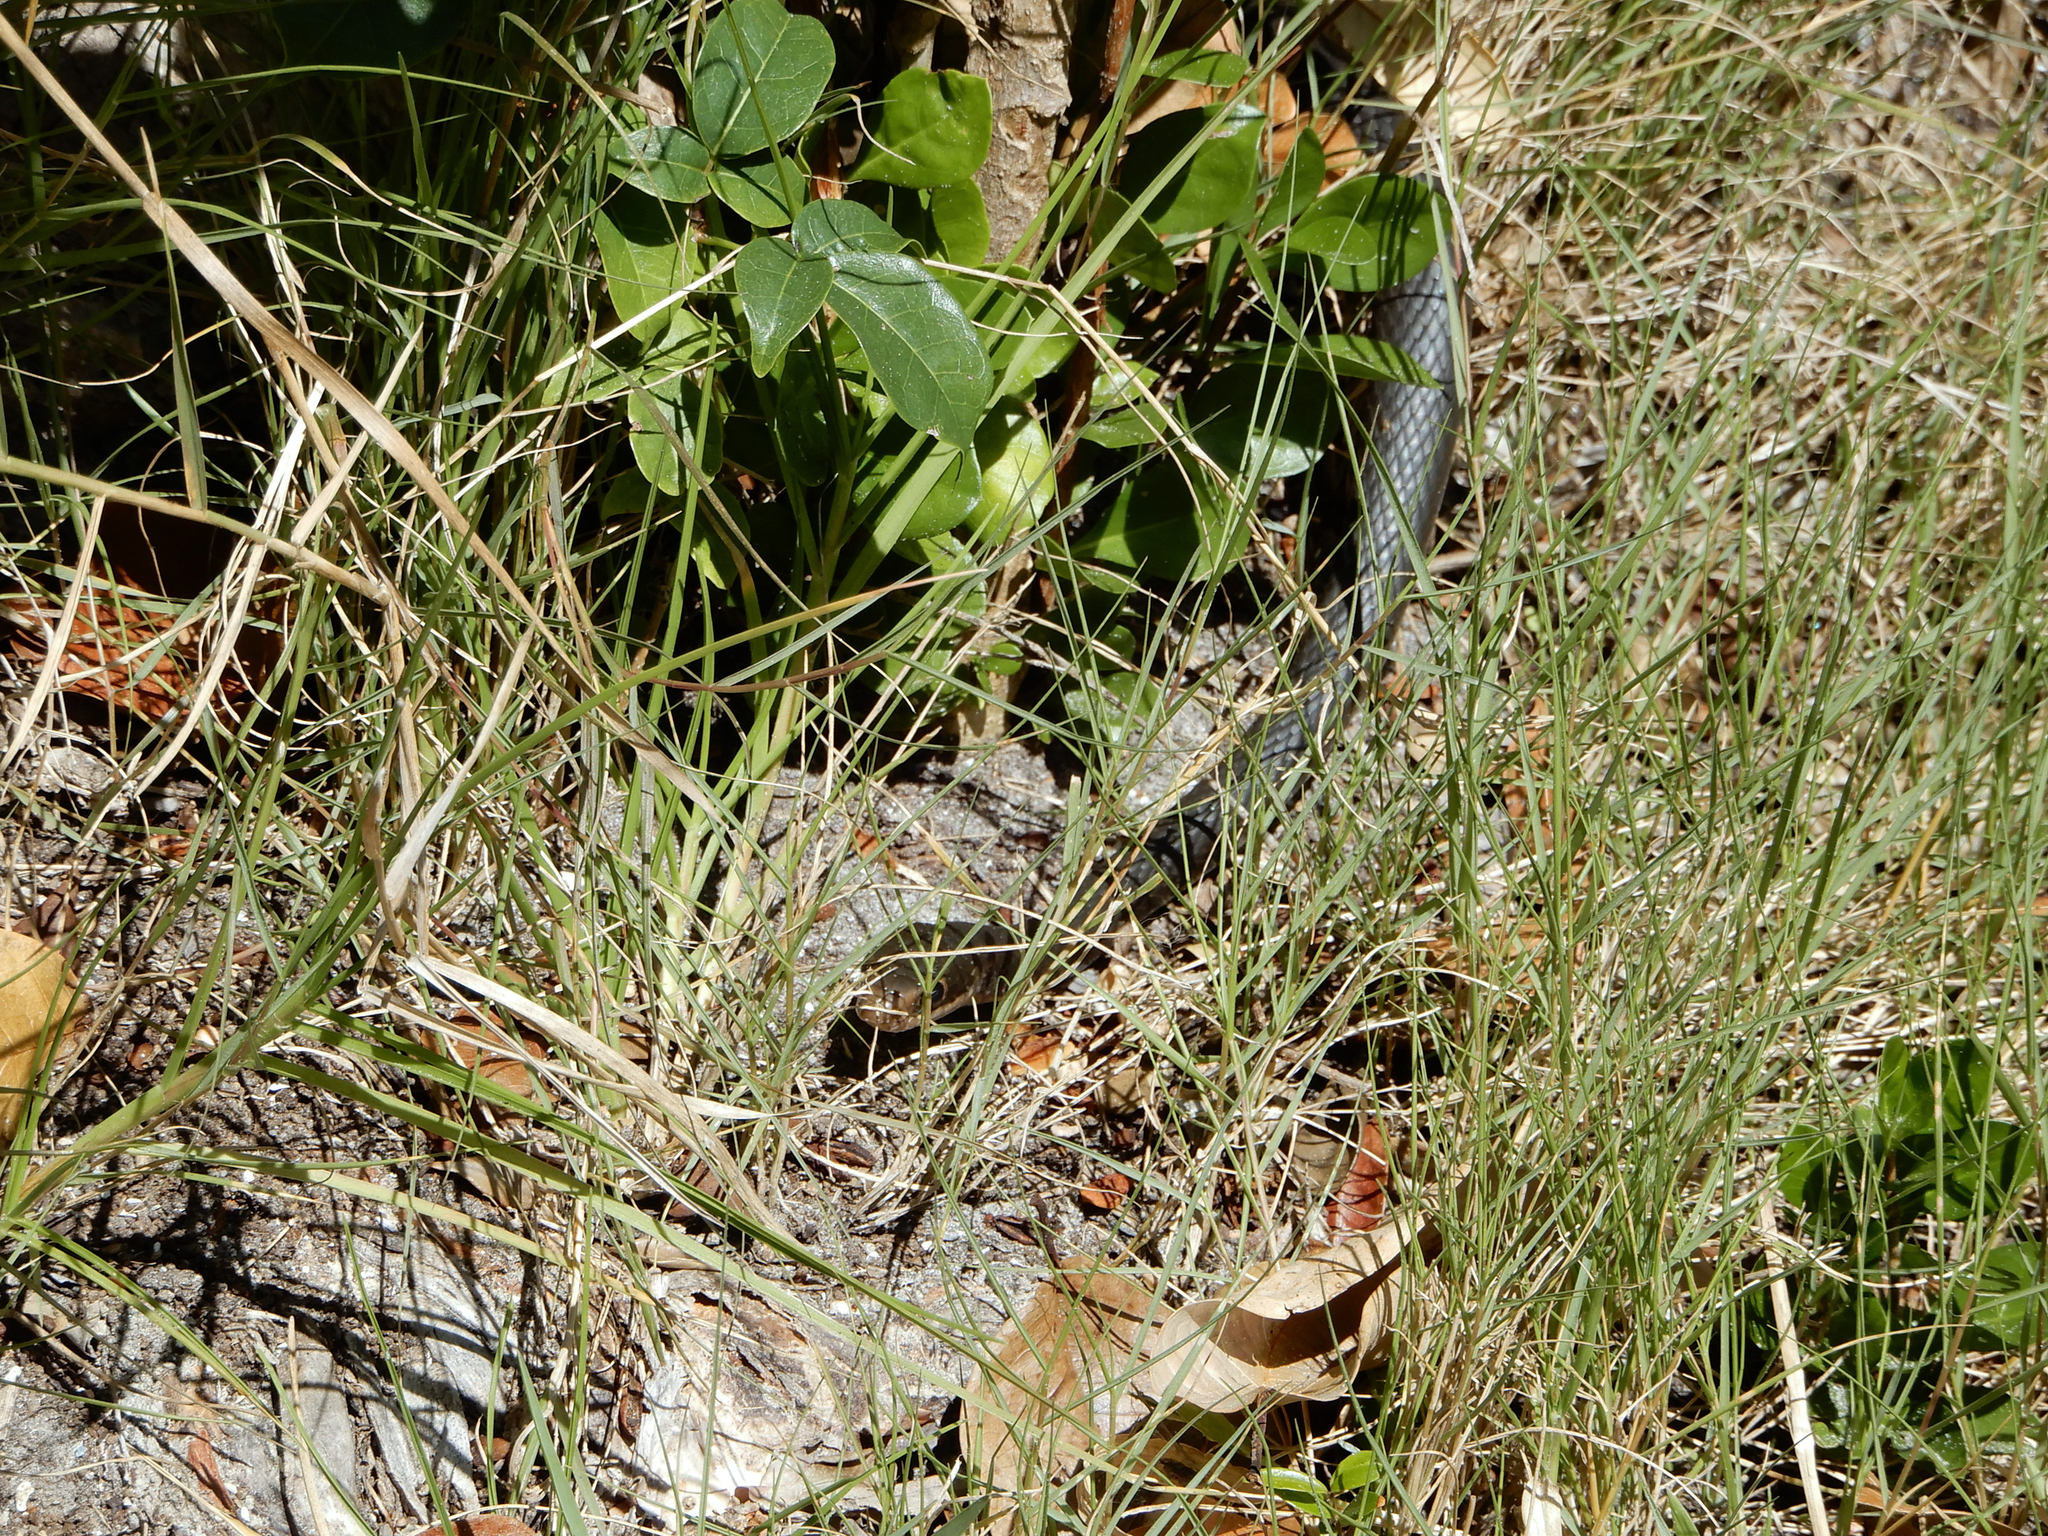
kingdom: Animalia
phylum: Chordata
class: Squamata
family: Colubridae
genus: Coluber
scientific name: Coluber constrictor
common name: Eastern racer
